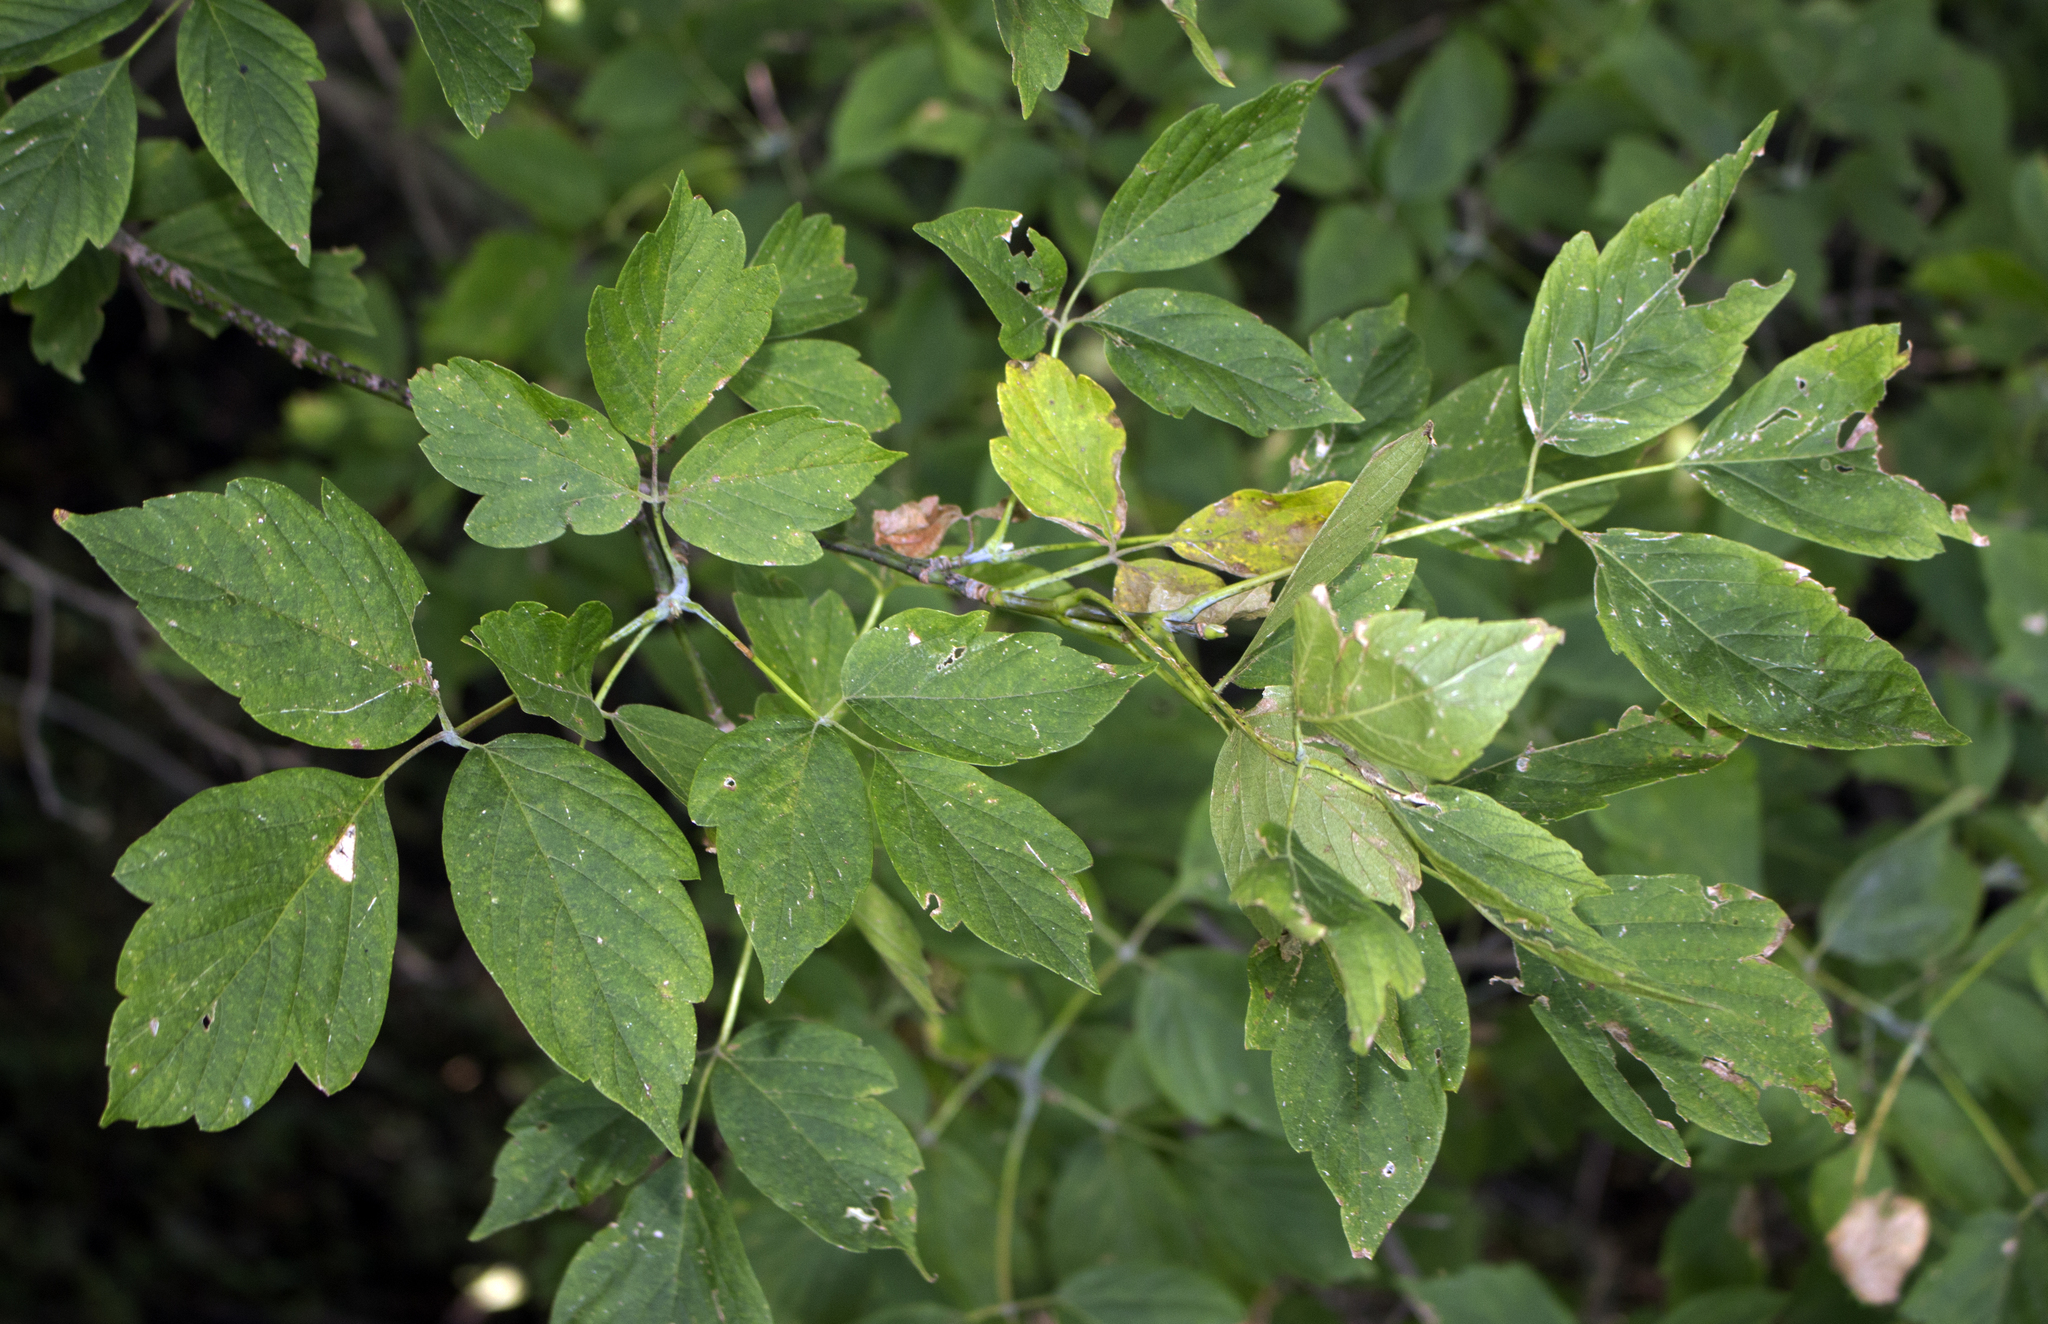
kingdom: Plantae
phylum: Tracheophyta
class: Magnoliopsida
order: Sapindales
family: Sapindaceae
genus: Acer
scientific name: Acer negundo
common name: Ashleaf maple
